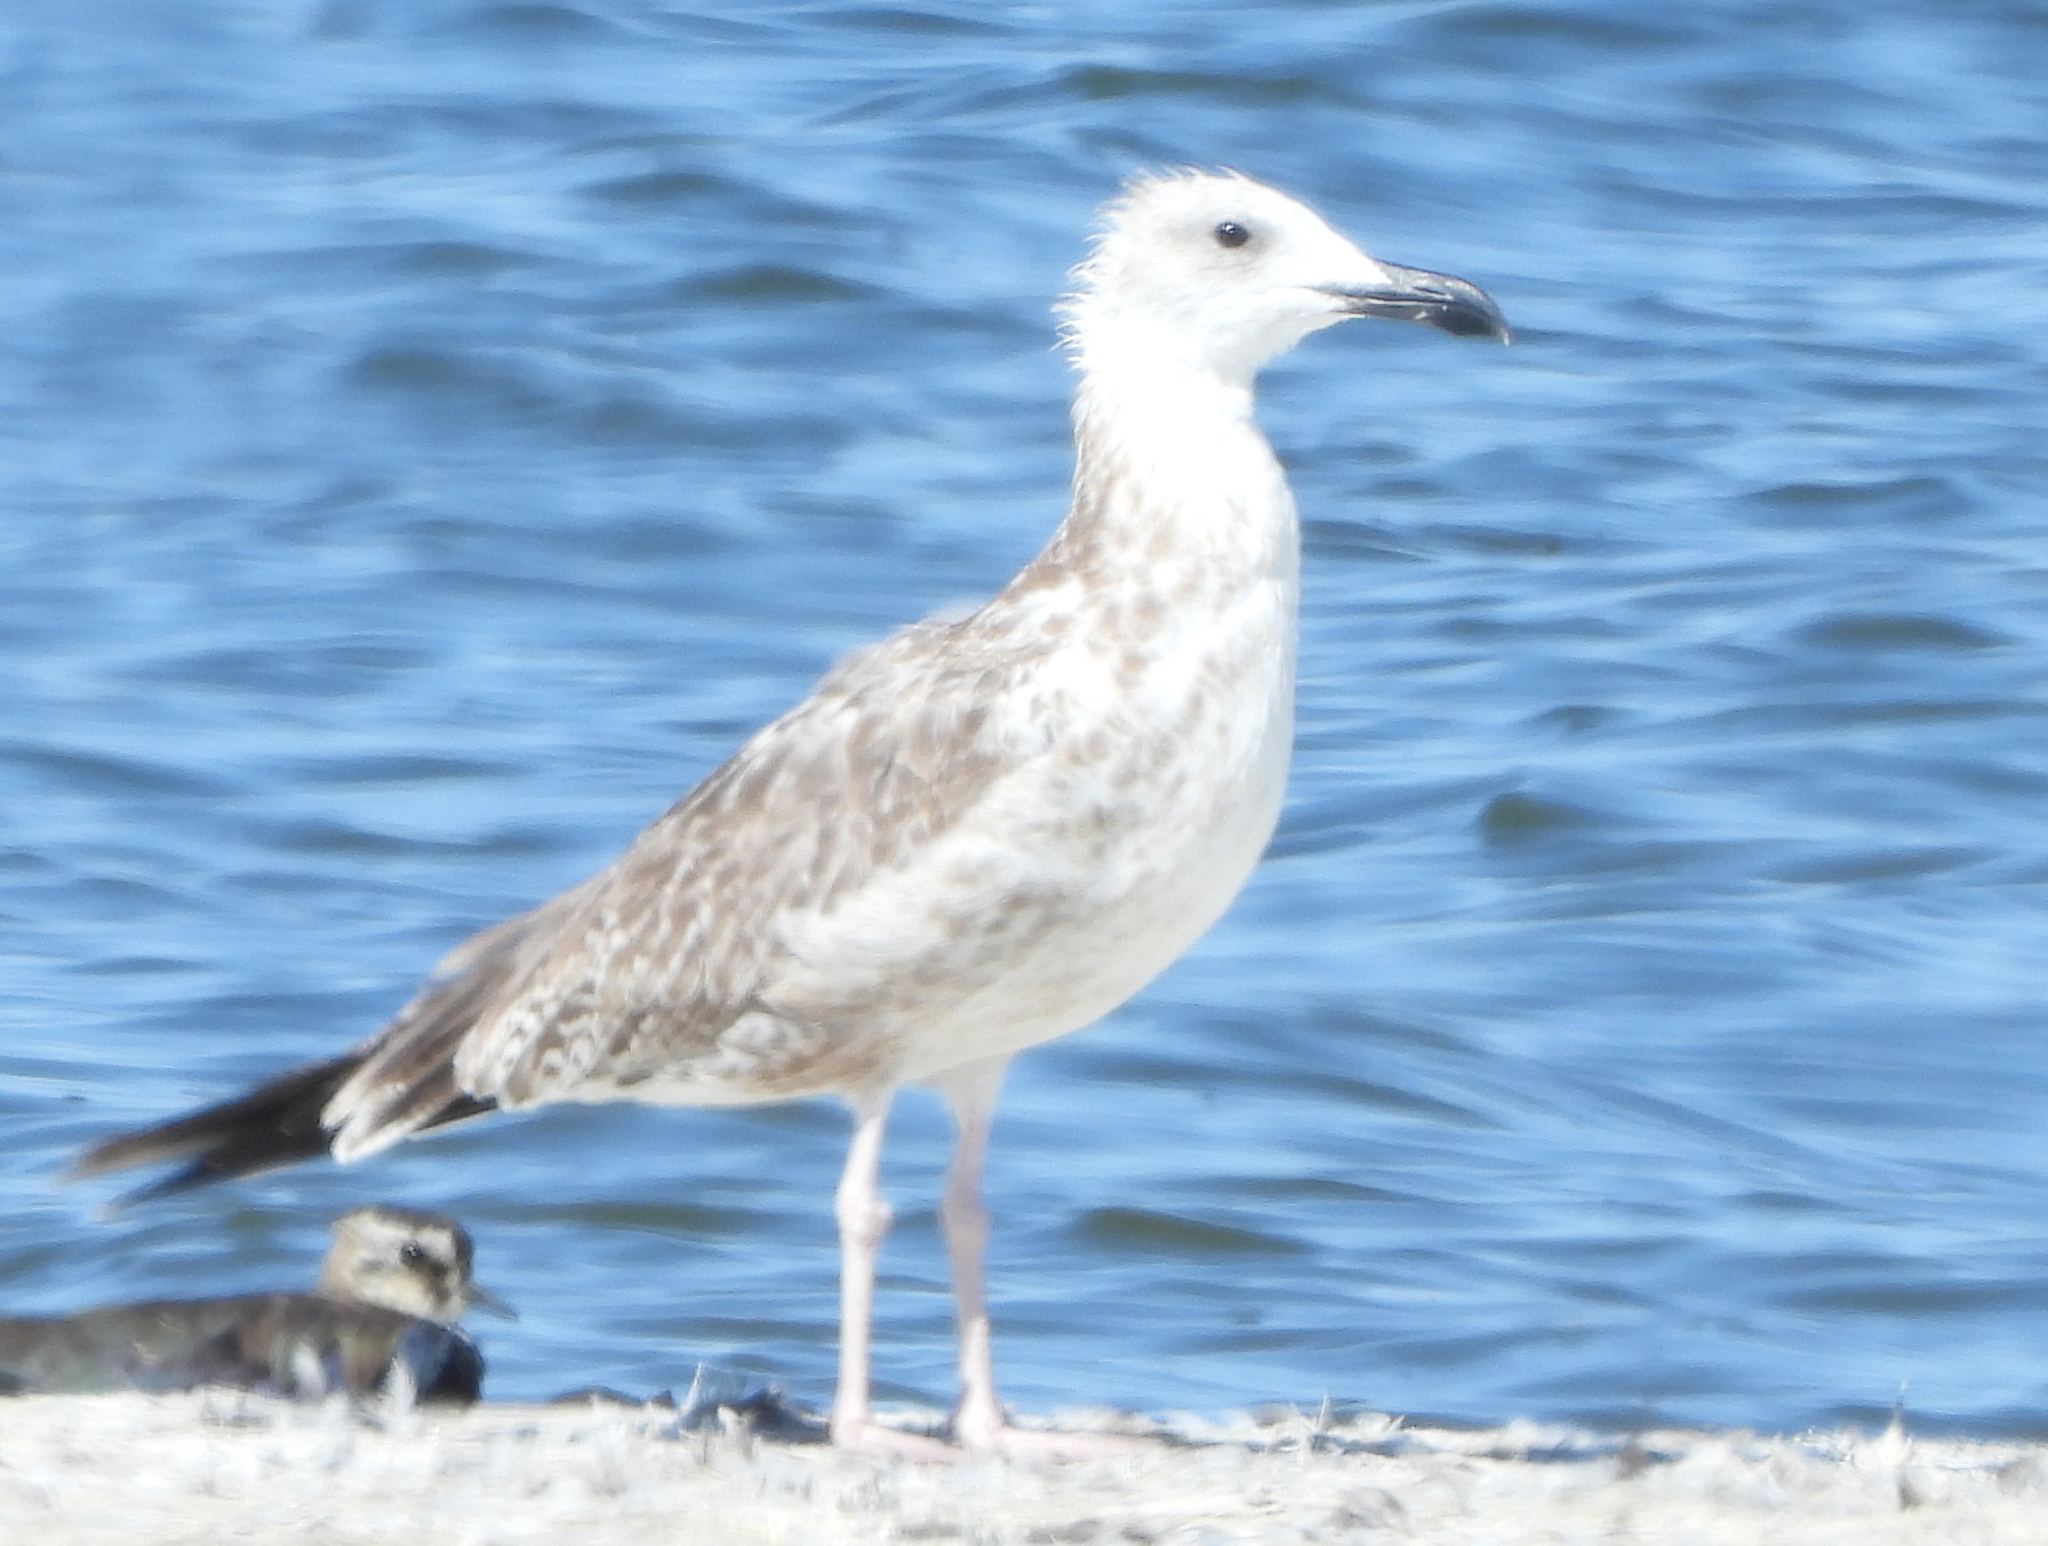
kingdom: Animalia
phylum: Chordata
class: Aves
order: Charadriiformes
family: Laridae
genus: Larus
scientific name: Larus cachinnans
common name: Caspian gull
